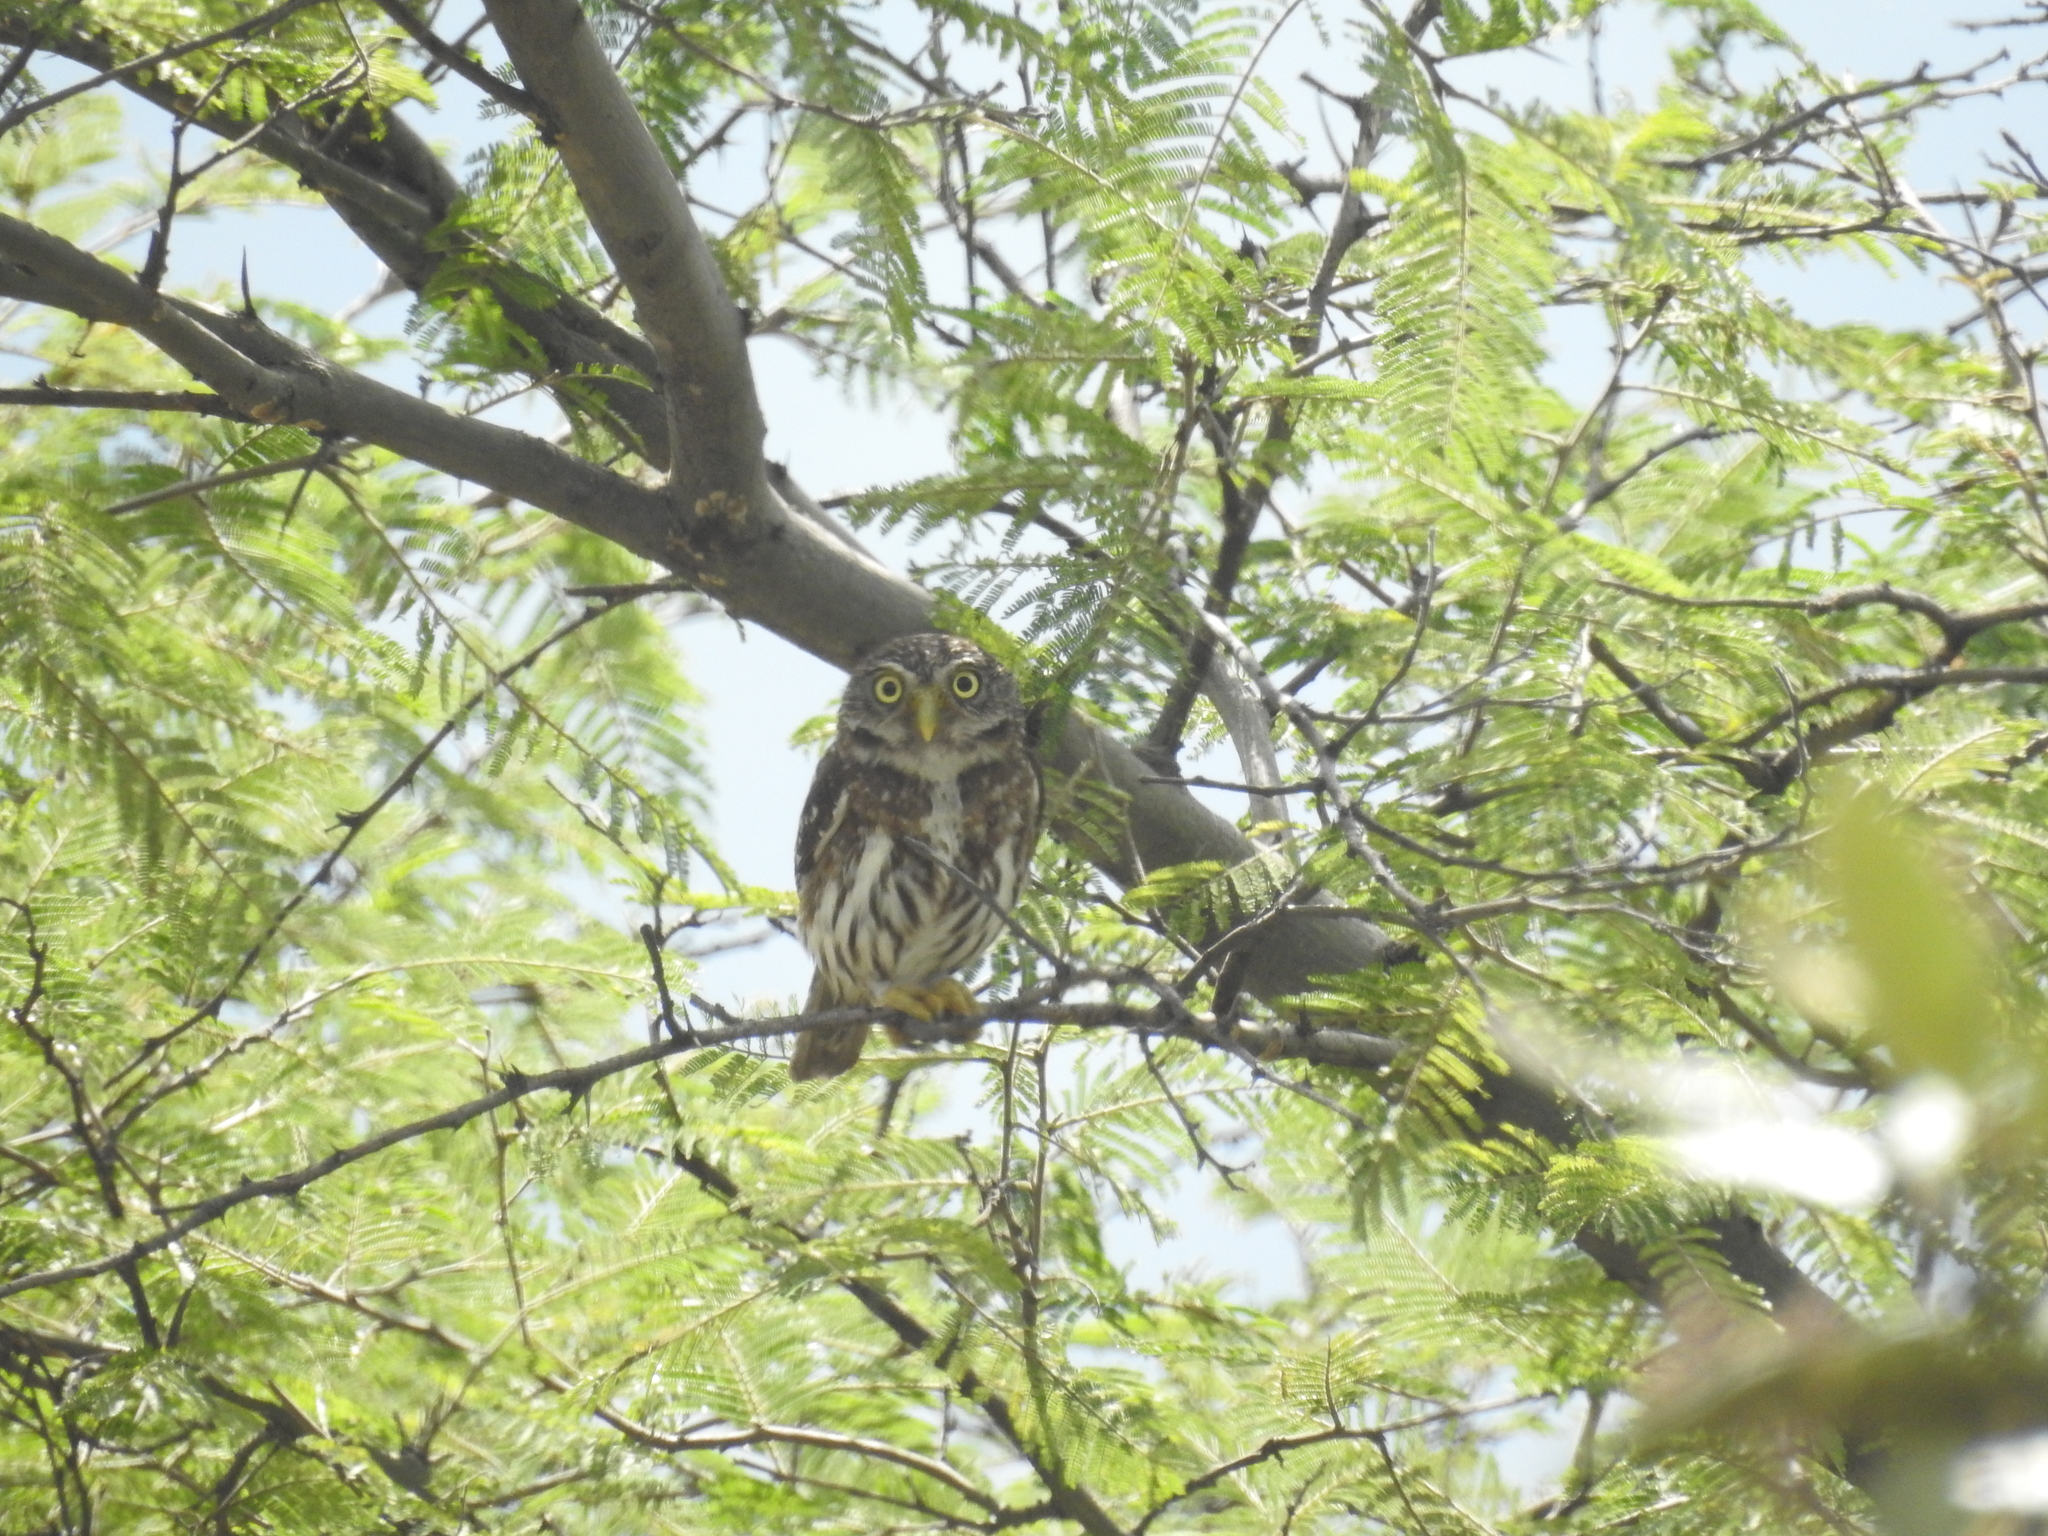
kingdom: Animalia
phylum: Chordata
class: Aves
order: Strigiformes
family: Strigidae
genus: Glaucidium
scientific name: Glaucidium peruanum
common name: Pacific pygmy owl
